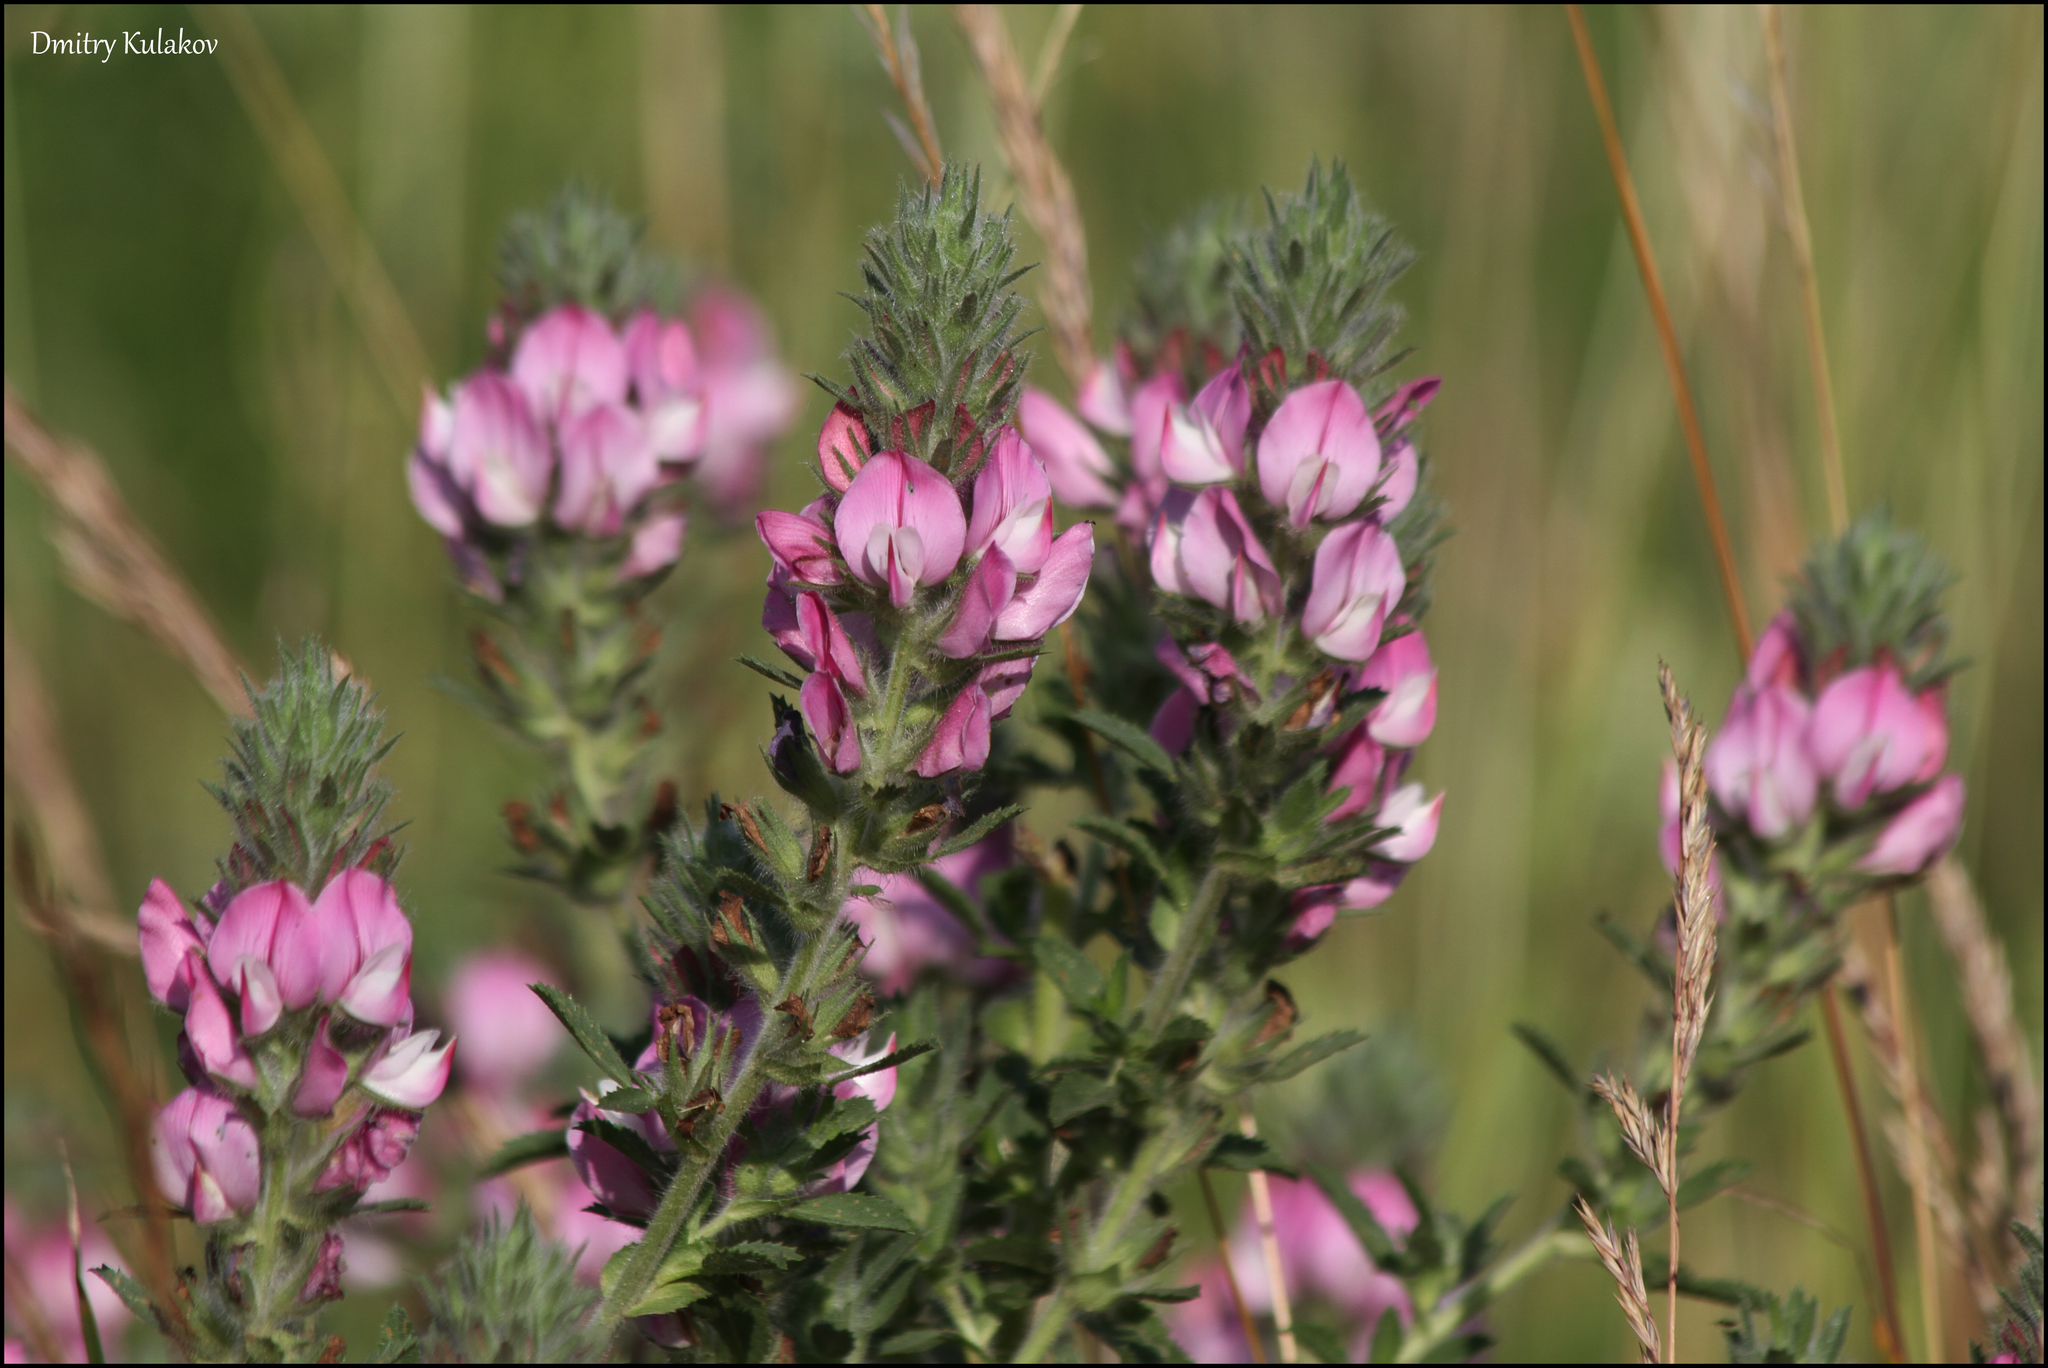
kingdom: Plantae
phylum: Tracheophyta
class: Magnoliopsida
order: Fabales
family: Fabaceae
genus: Ononis
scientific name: Ononis arvensis
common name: Field restharrow
